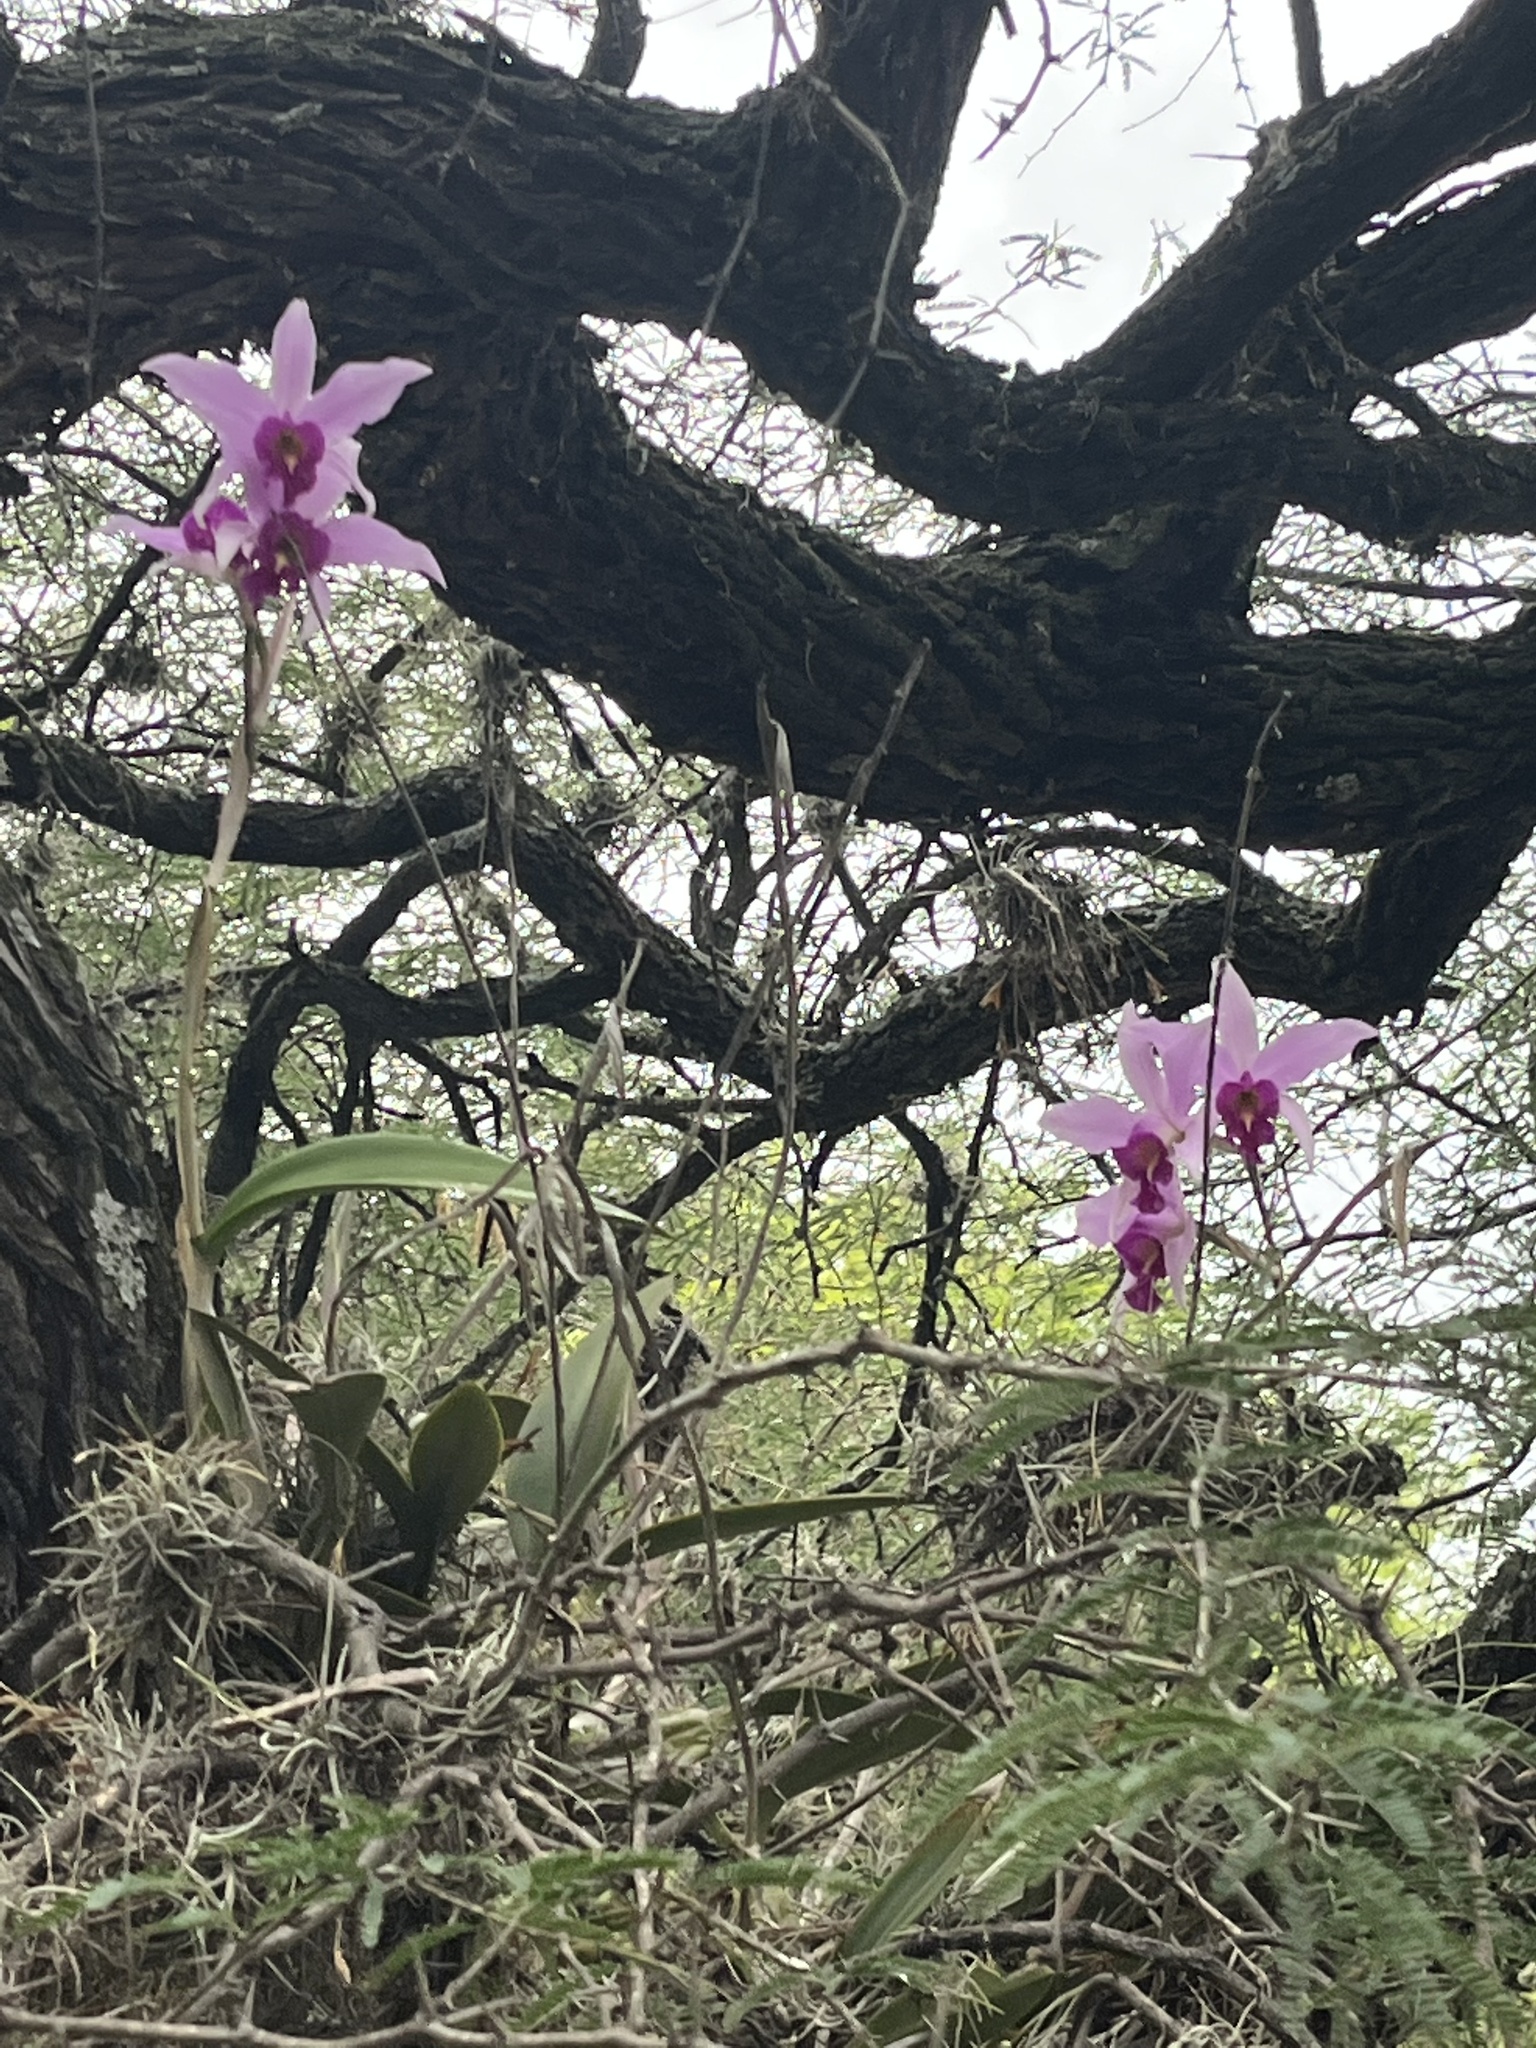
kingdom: Plantae
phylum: Tracheophyta
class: Liliopsida
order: Asparagales
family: Orchidaceae
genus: Laelia
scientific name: Laelia anceps
